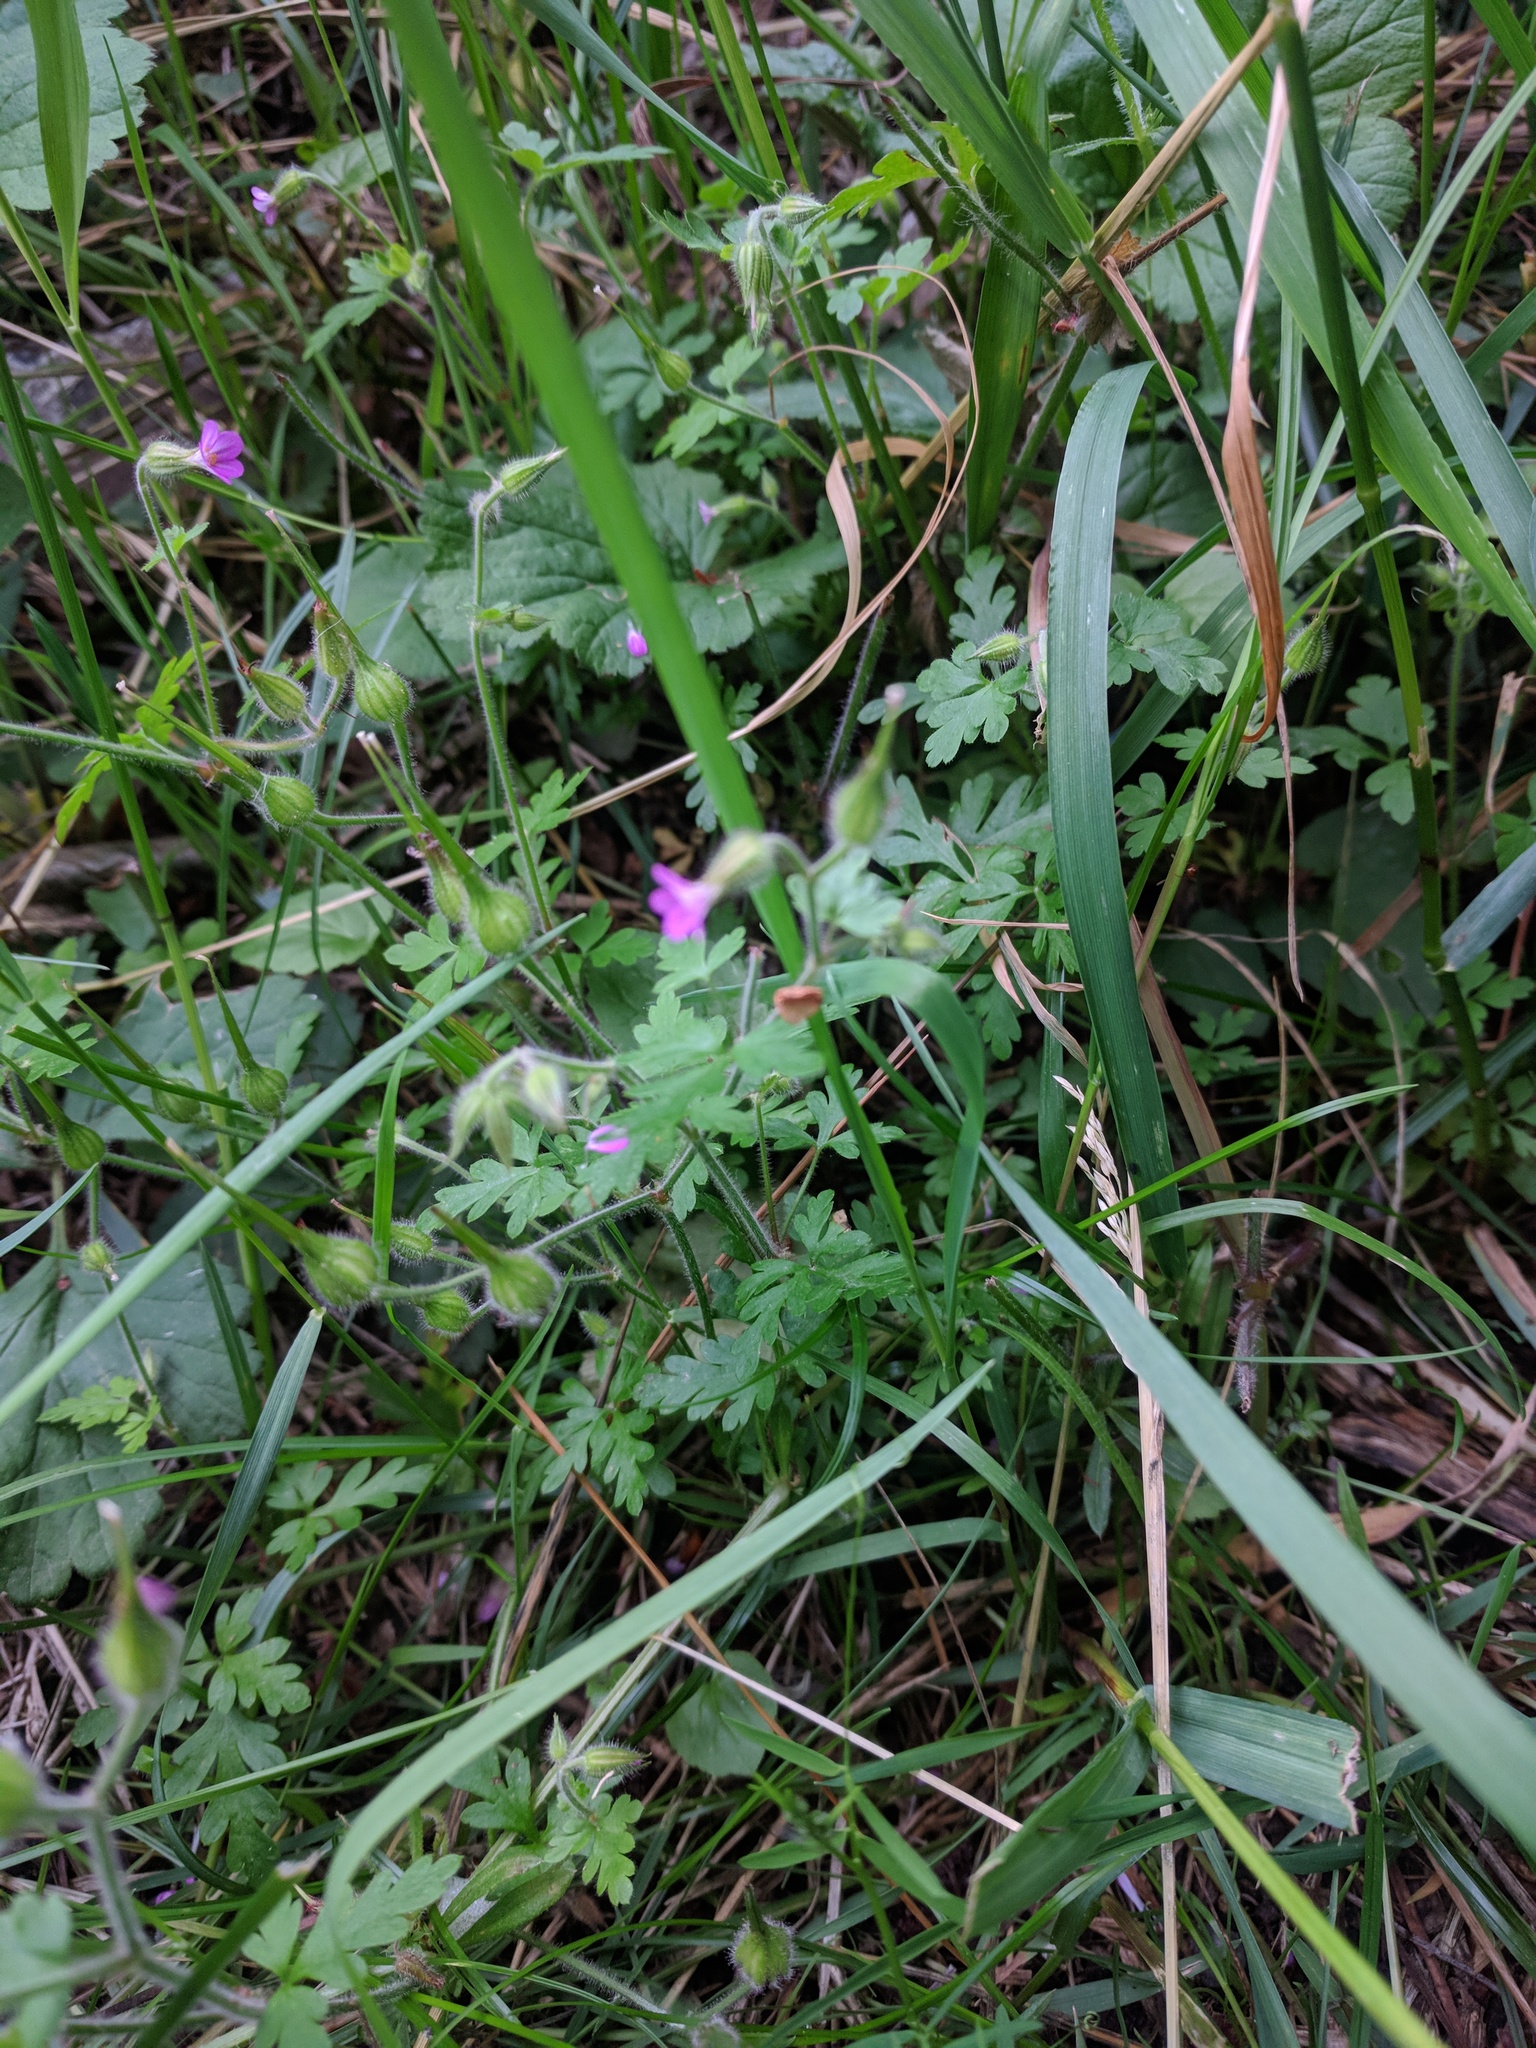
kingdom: Plantae
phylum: Tracheophyta
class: Magnoliopsida
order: Geraniales
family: Geraniaceae
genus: Geranium
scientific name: Geranium purpureum
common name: Little-robin
